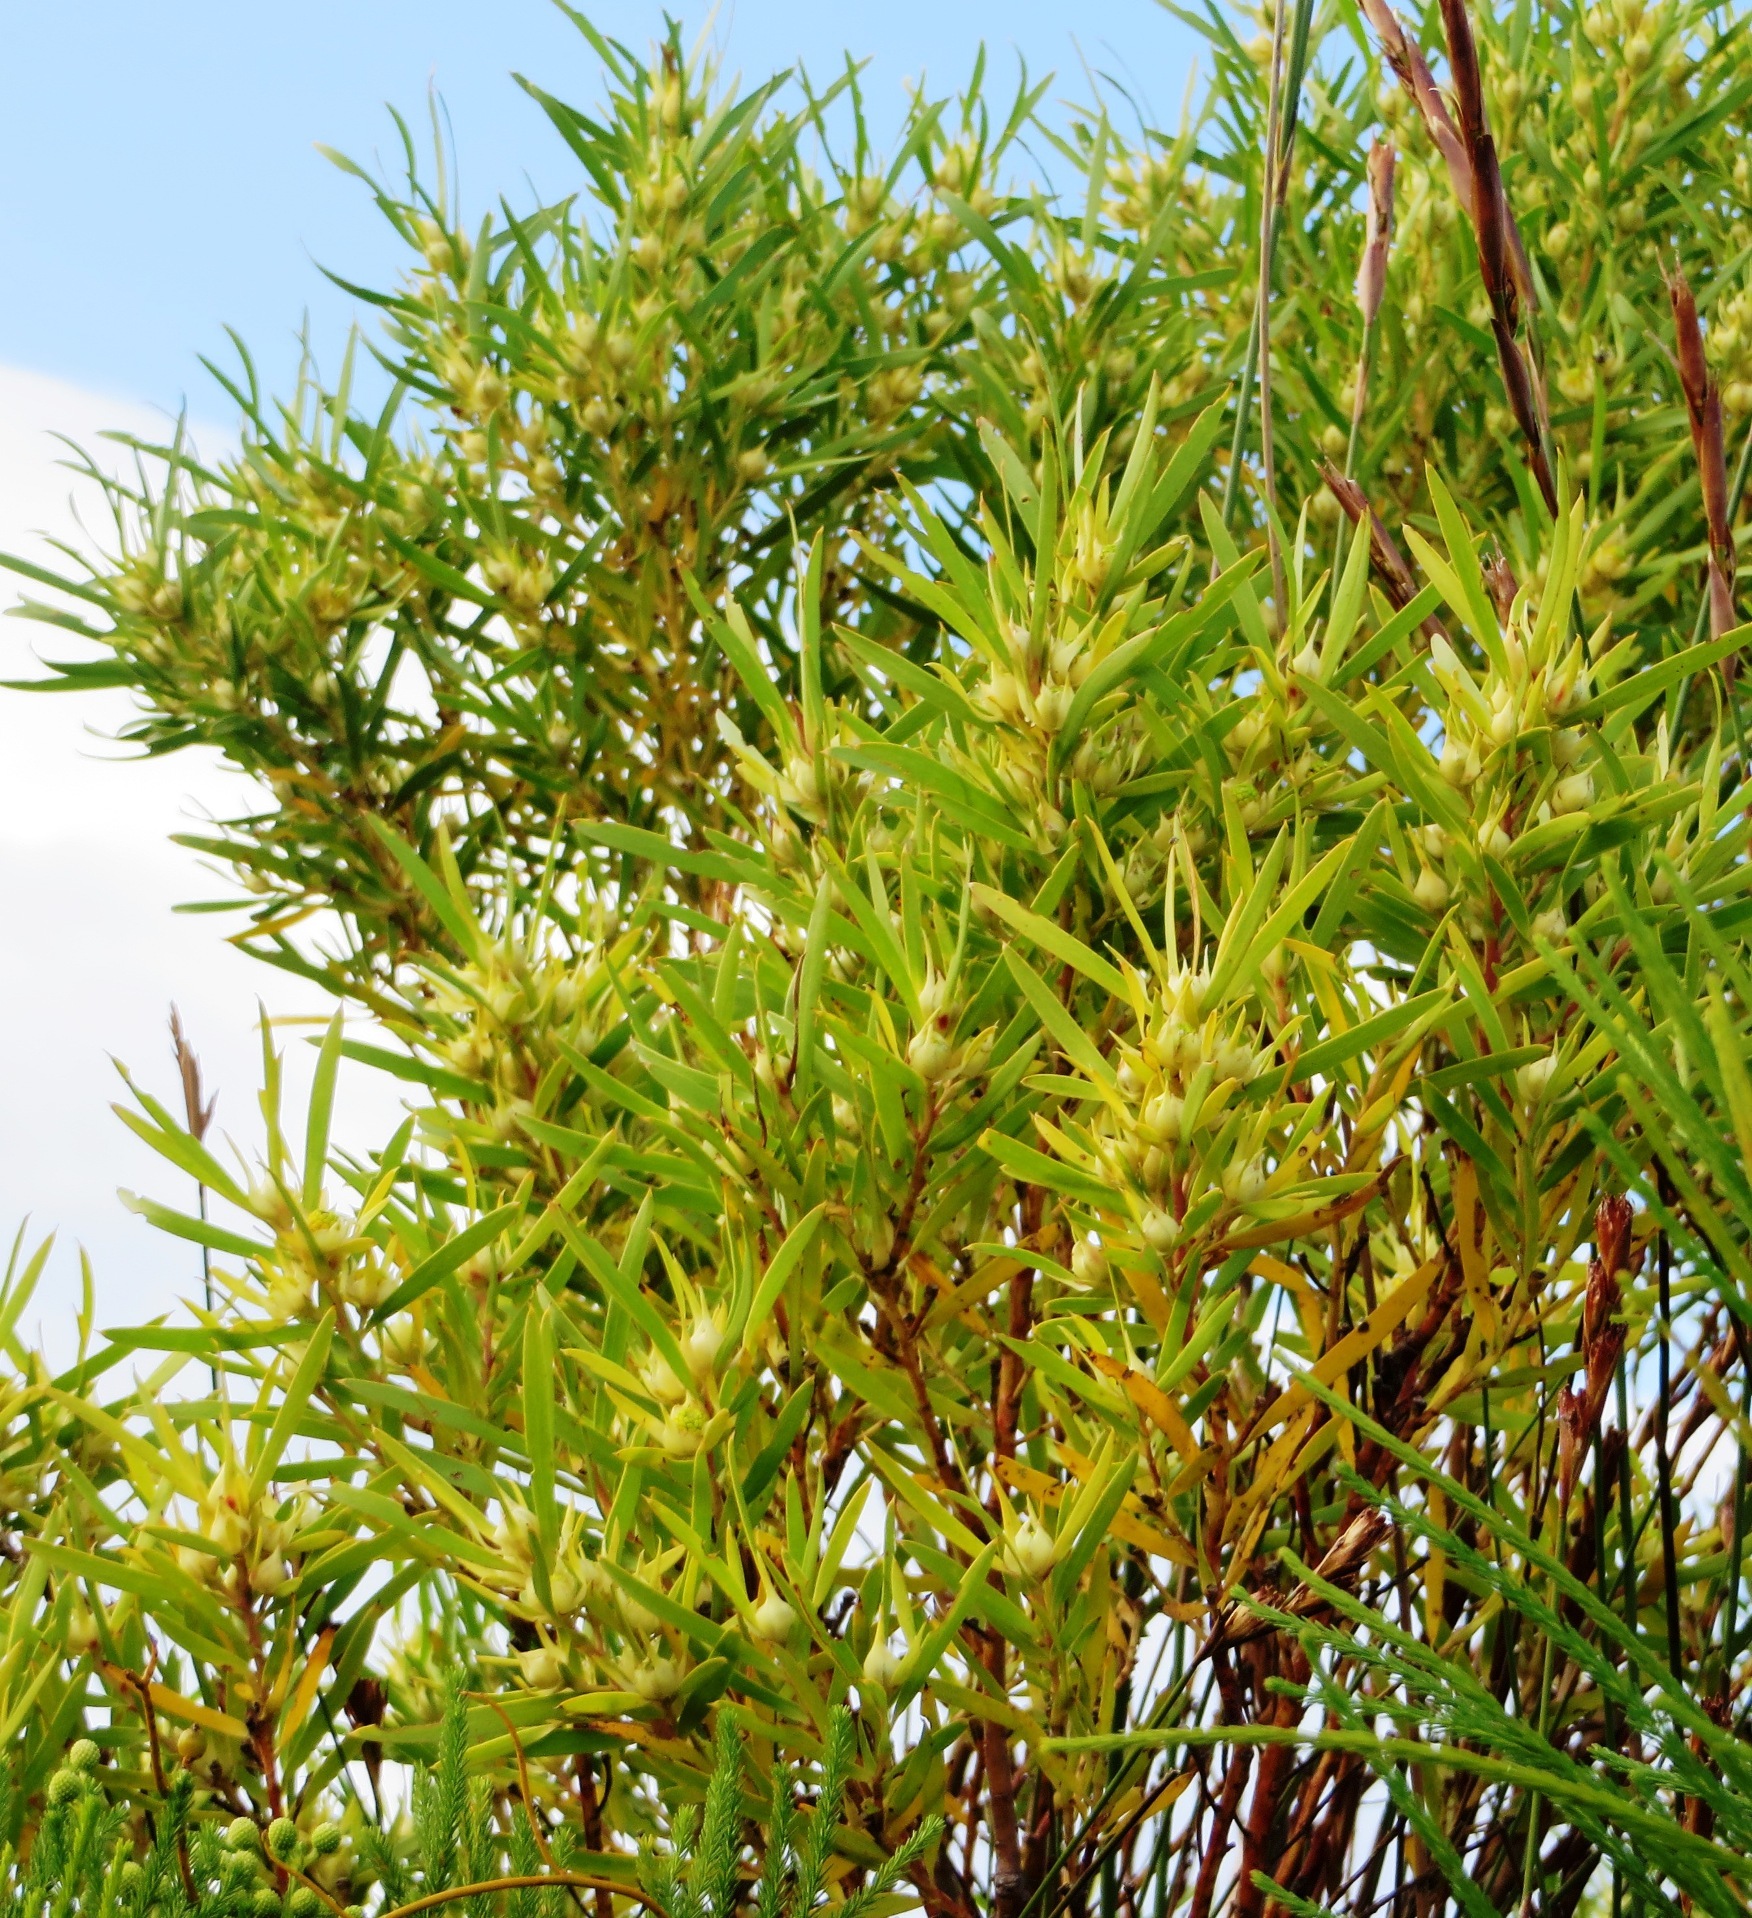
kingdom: Plantae
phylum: Tracheophyta
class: Magnoliopsida
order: Proteales
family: Proteaceae
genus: Leucadendron
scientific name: Leucadendron salicifolium
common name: Common stream conebush
